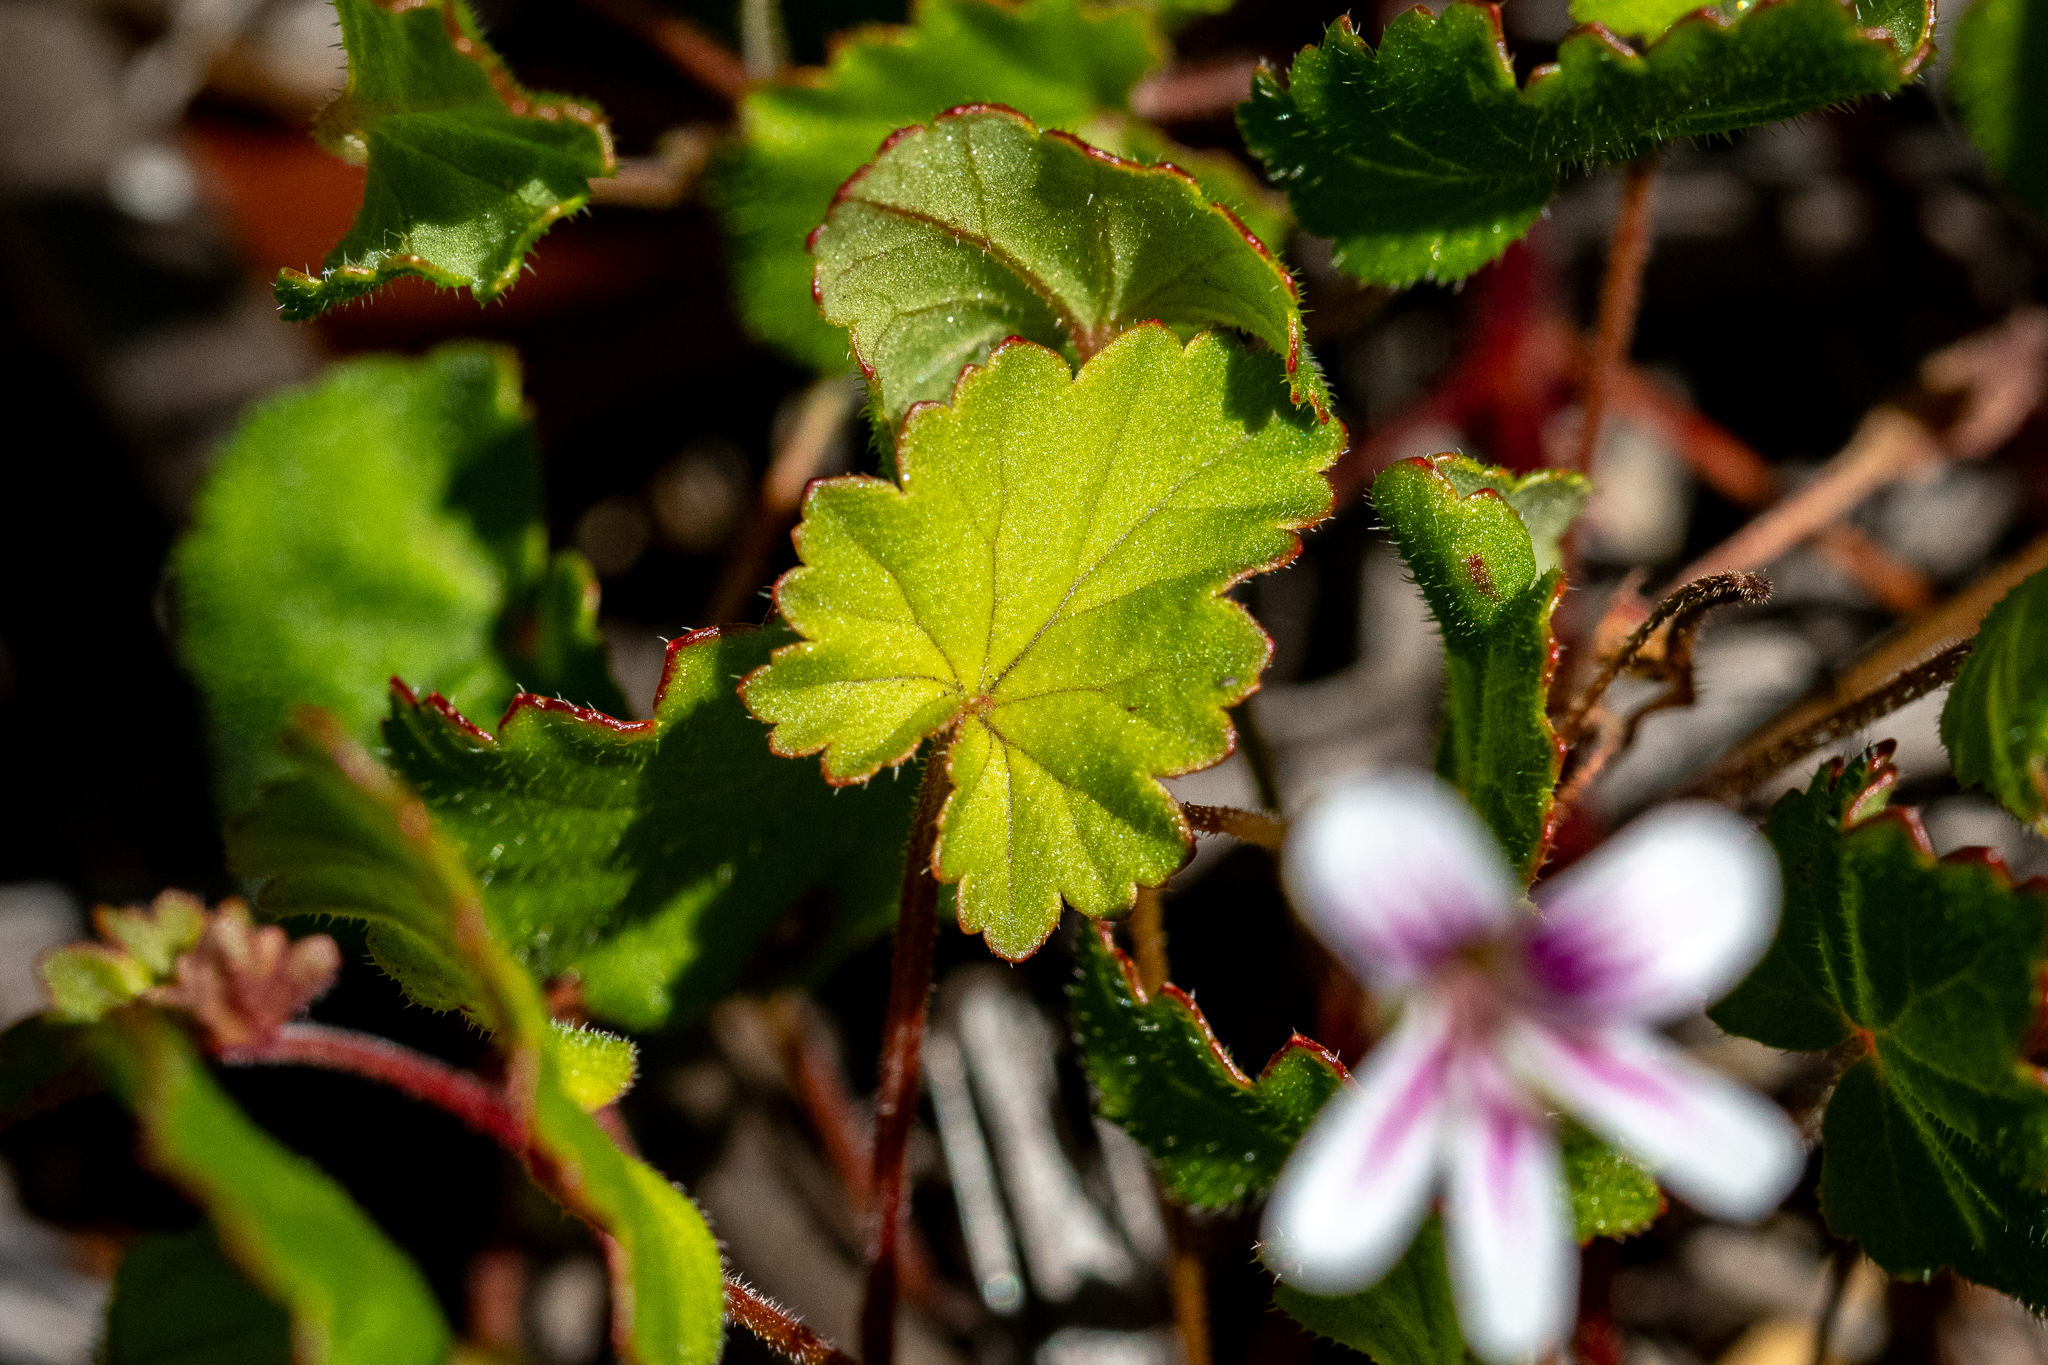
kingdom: Plantae
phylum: Tracheophyta
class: Magnoliopsida
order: Geraniales
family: Geraniaceae
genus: Pelargonium
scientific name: Pelargonium pseudosetulosum
